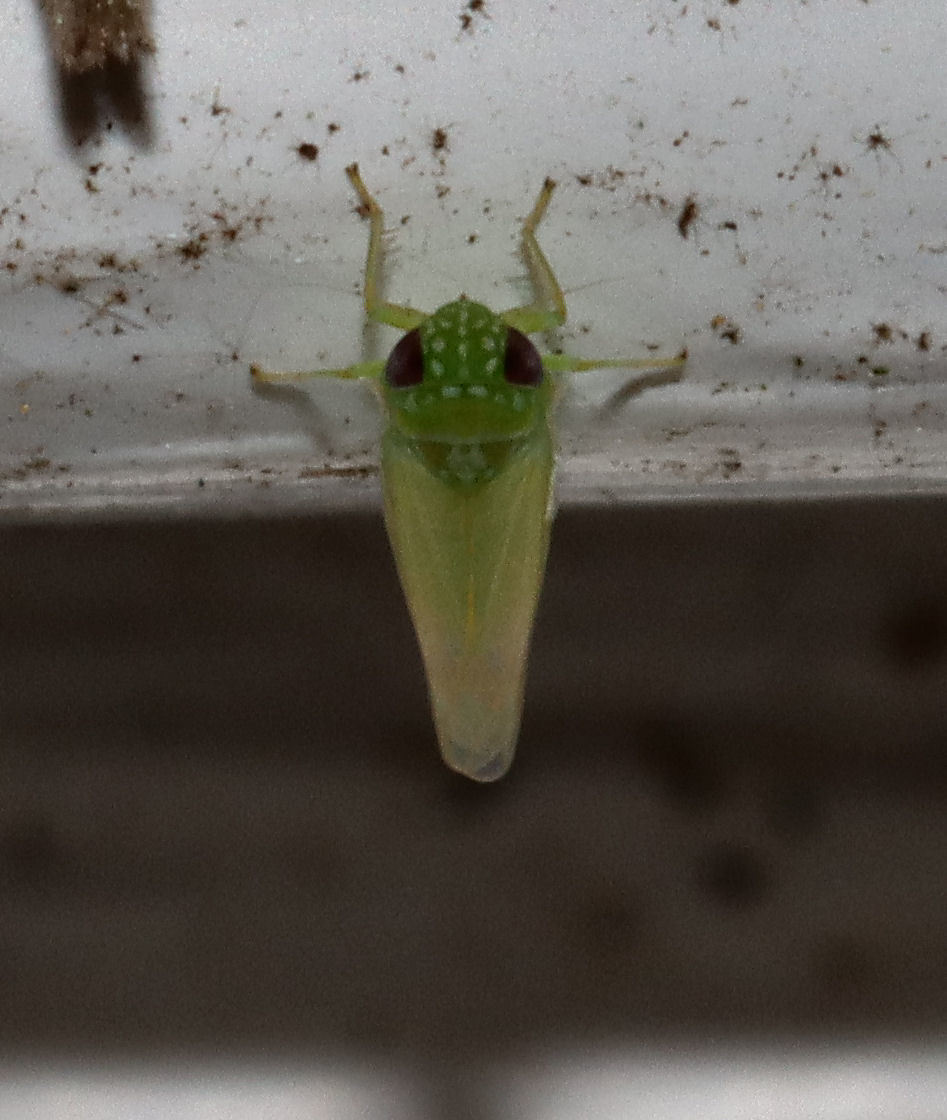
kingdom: Animalia
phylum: Arthropoda
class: Insecta
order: Hemiptera
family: Cicadellidae
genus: Empoasca
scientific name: Empoasca fabae
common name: Potato leafhopper
